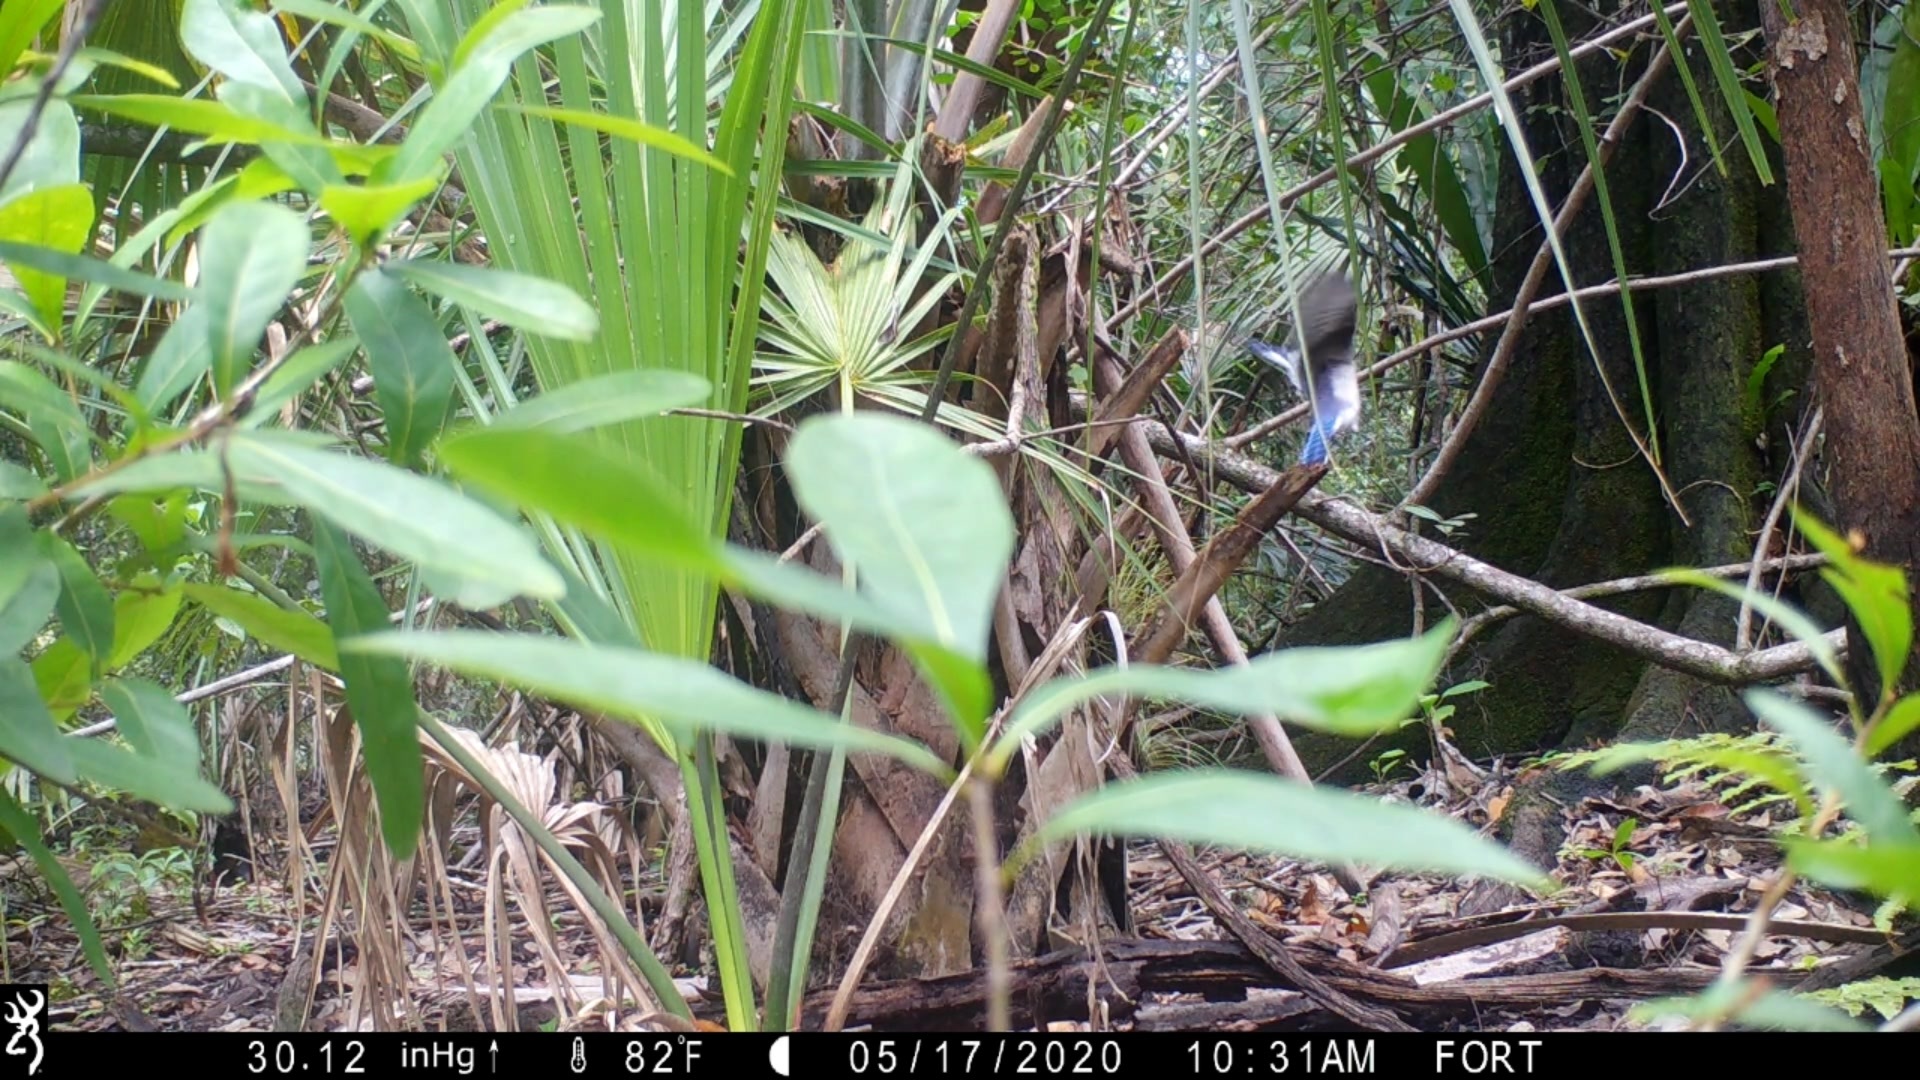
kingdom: Animalia
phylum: Chordata
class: Aves
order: Passeriformes
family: Corvidae
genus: Cyanocitta
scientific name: Cyanocitta cristata
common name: Blue jay
